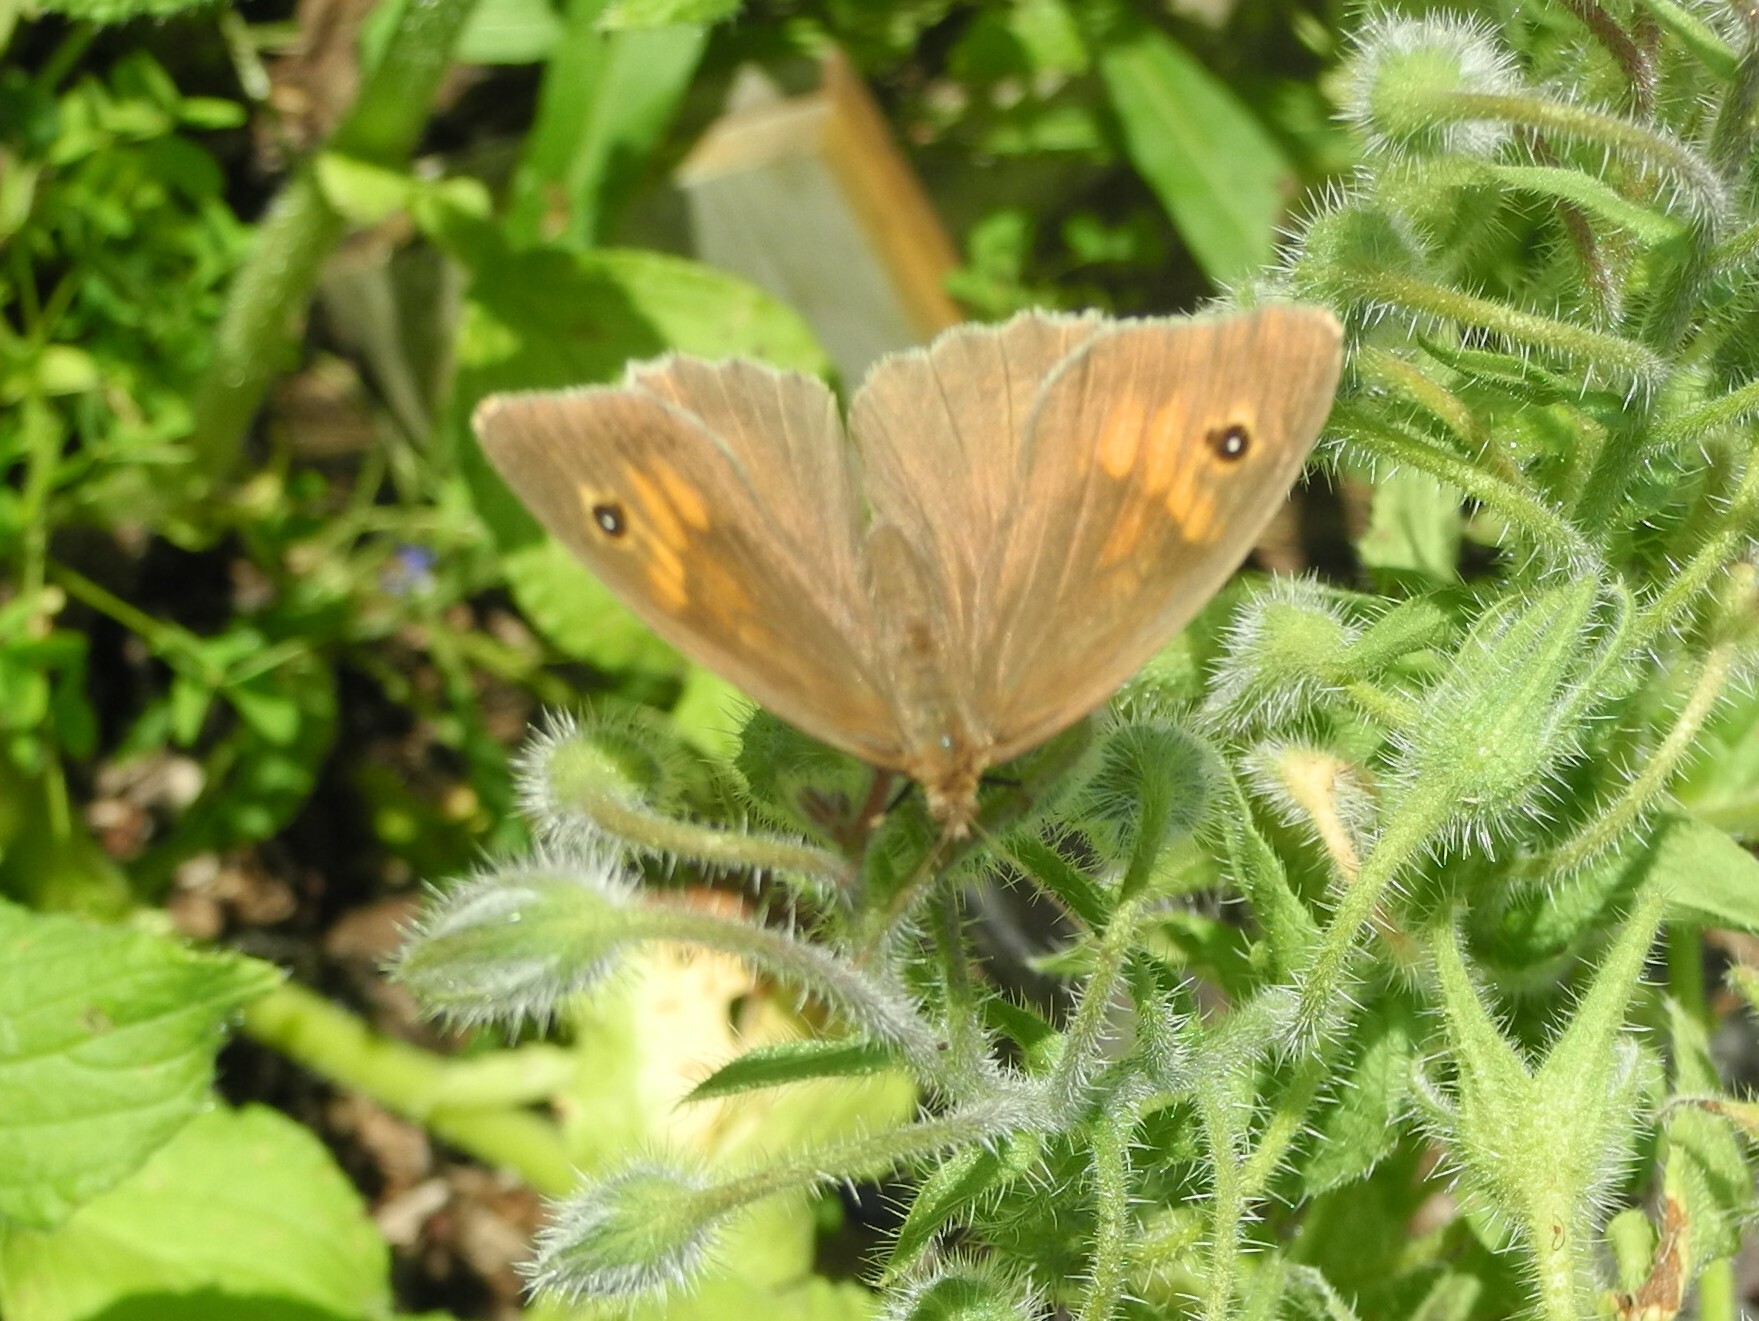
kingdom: Animalia
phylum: Arthropoda
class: Insecta
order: Lepidoptera
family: Nymphalidae
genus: Maniola
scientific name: Maniola jurtina
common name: Meadow brown
